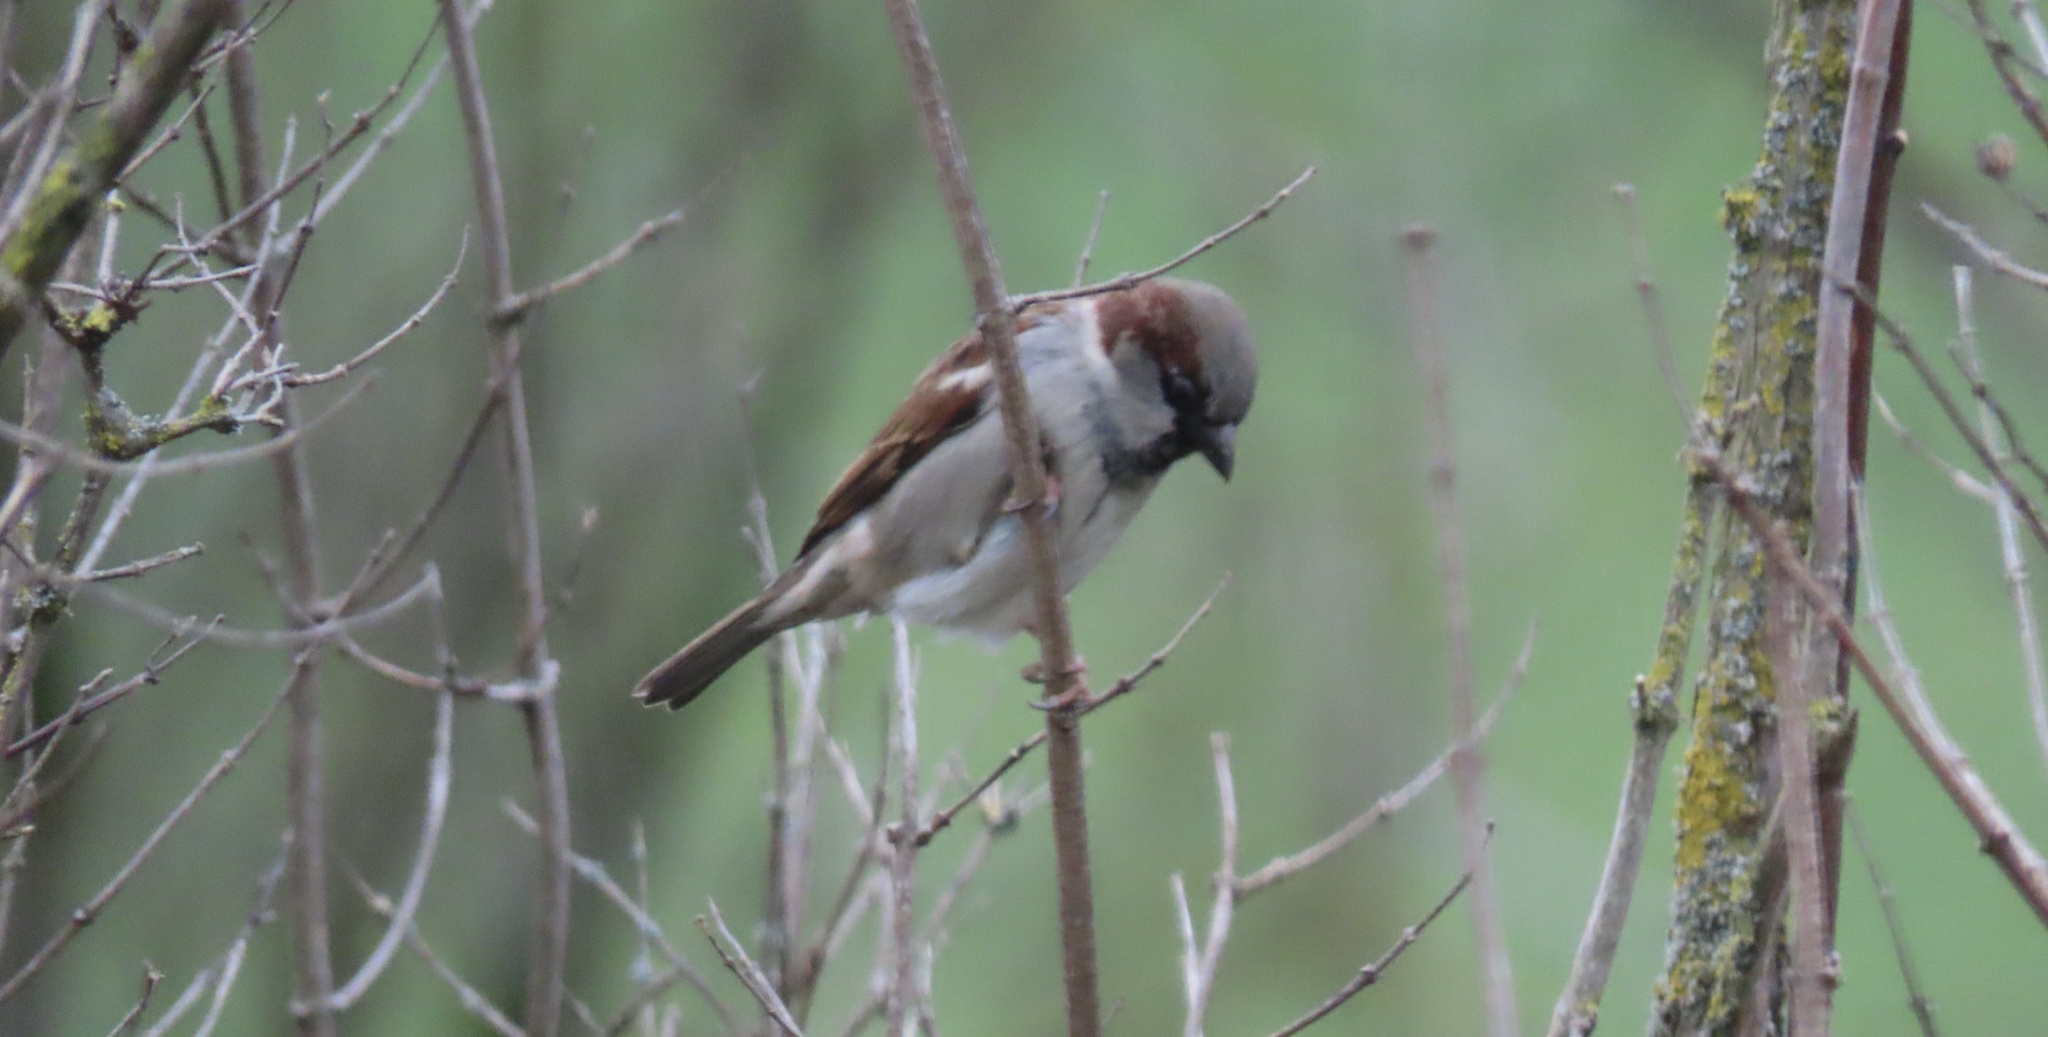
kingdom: Animalia
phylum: Chordata
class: Aves
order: Passeriformes
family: Passeridae
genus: Passer
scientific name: Passer domesticus
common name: House sparrow
